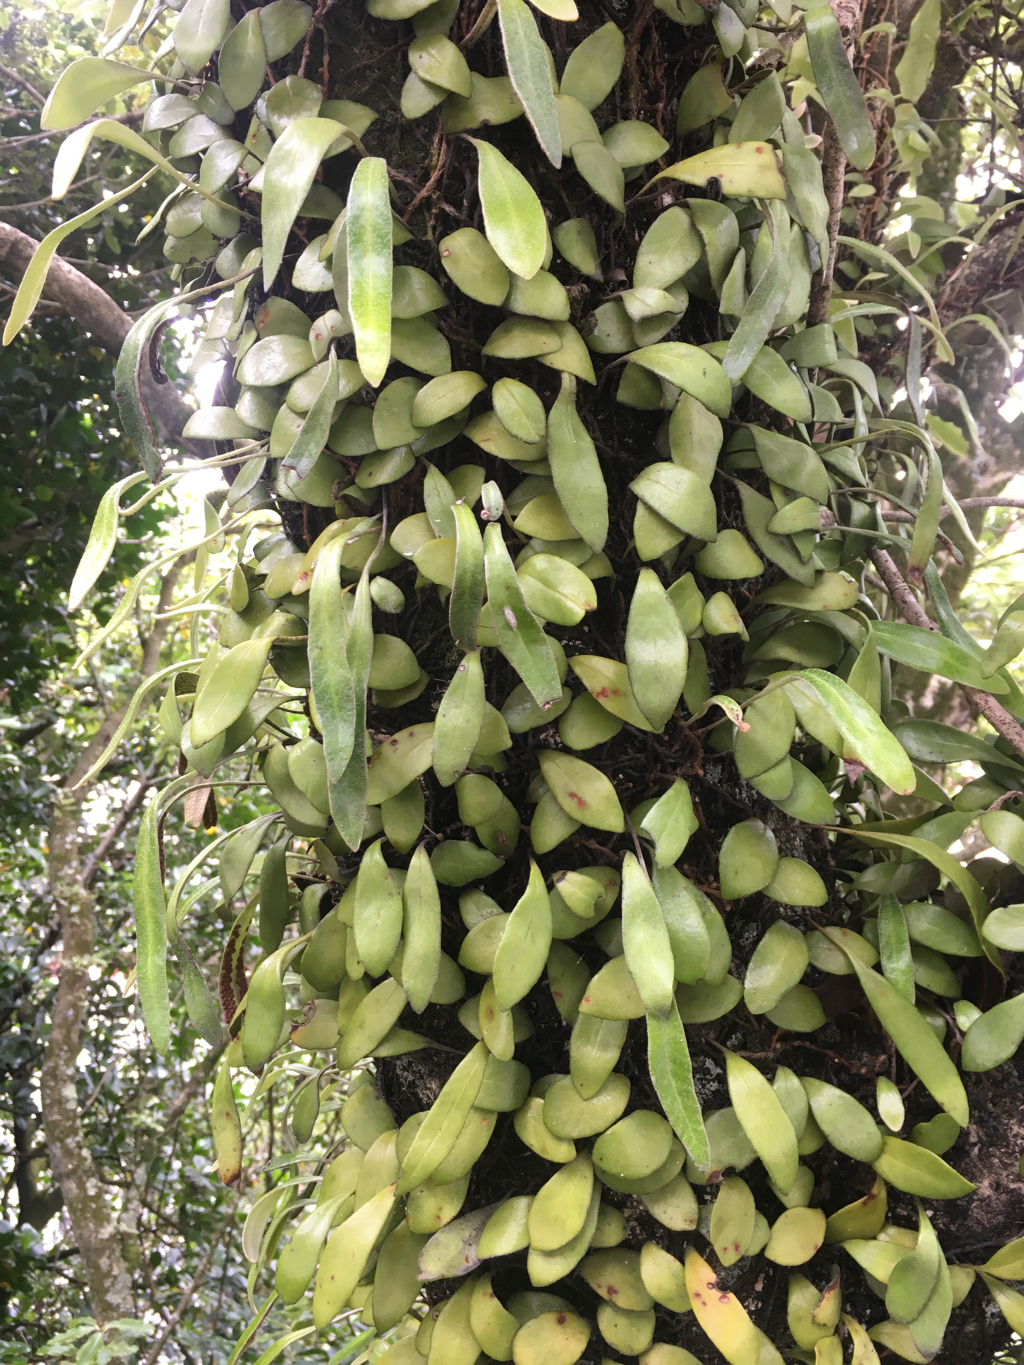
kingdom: Plantae
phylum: Tracheophyta
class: Polypodiopsida
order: Polypodiales
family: Polypodiaceae
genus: Pyrrosia
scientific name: Pyrrosia eleagnifolia
